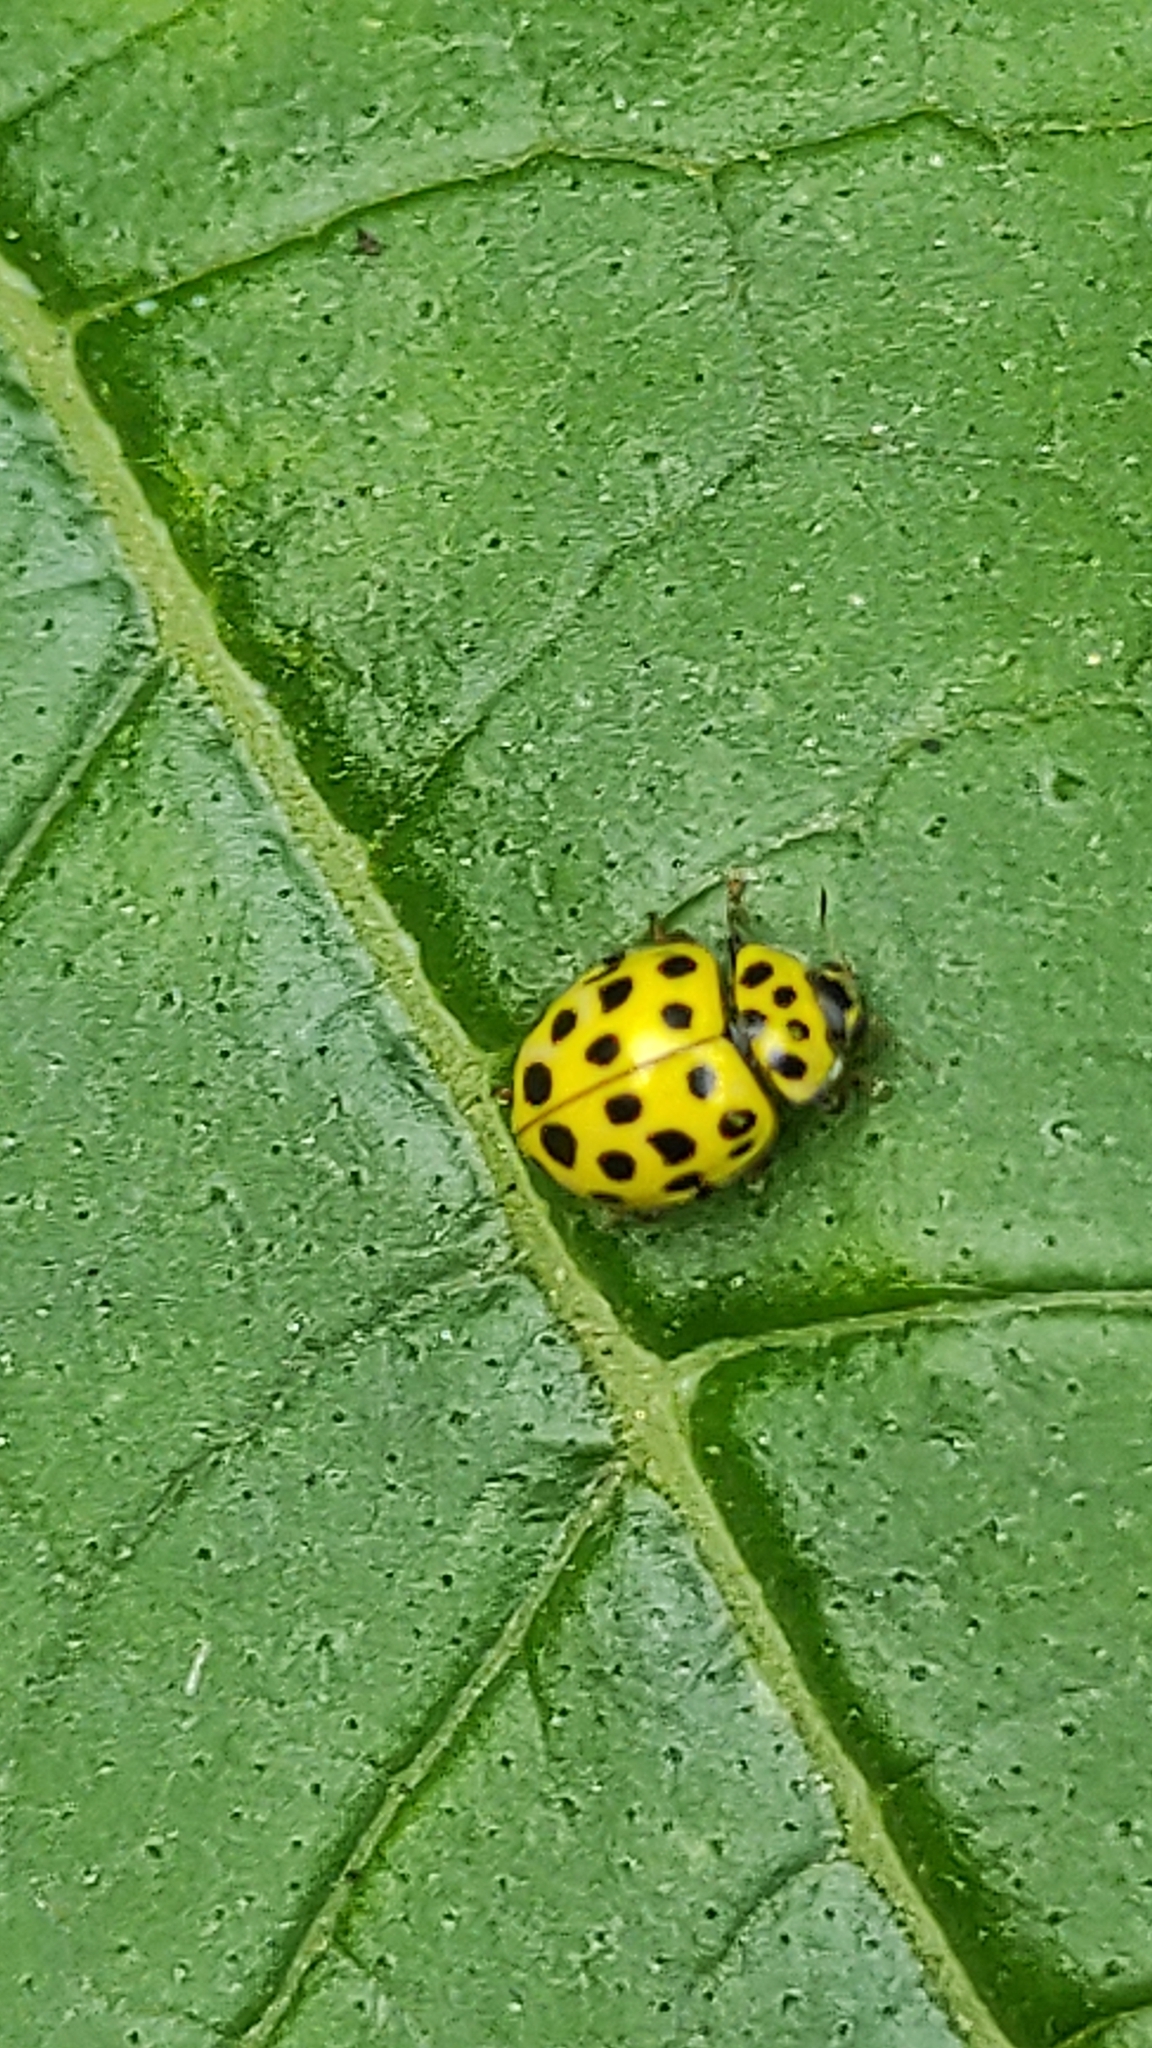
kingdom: Animalia
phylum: Arthropoda
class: Insecta
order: Coleoptera
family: Coccinellidae
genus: Psyllobora
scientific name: Psyllobora vigintiduopunctata
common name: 22-spot ladybird
